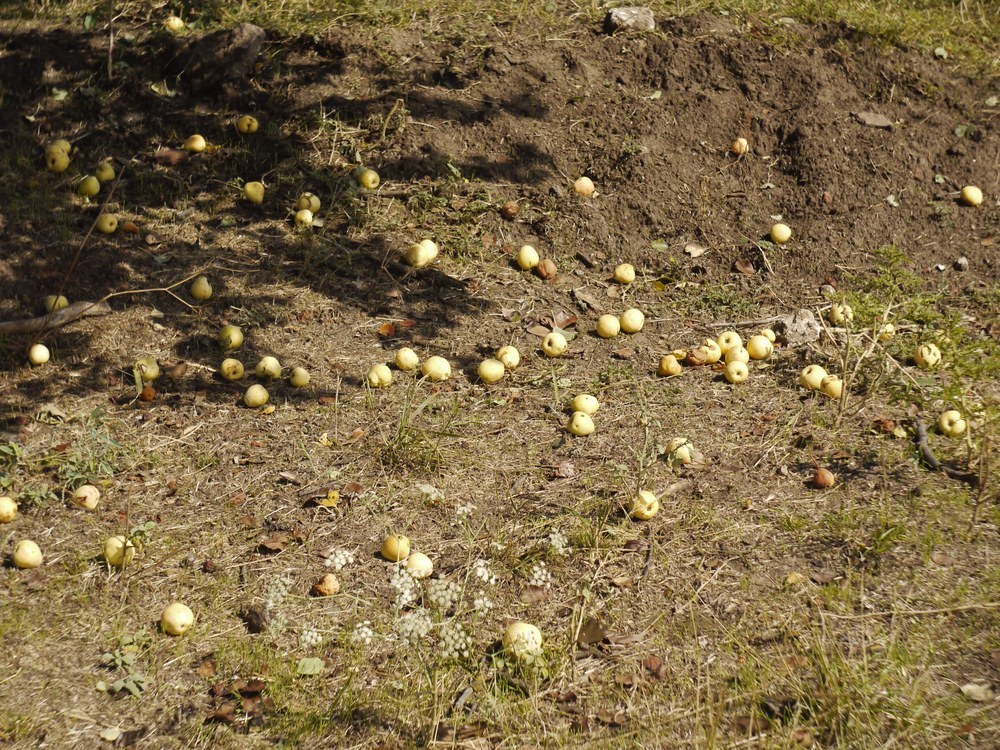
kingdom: Plantae
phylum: Tracheophyta
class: Magnoliopsida
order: Rosales
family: Rosaceae
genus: Pyrus
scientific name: Pyrus communis
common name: Pear
